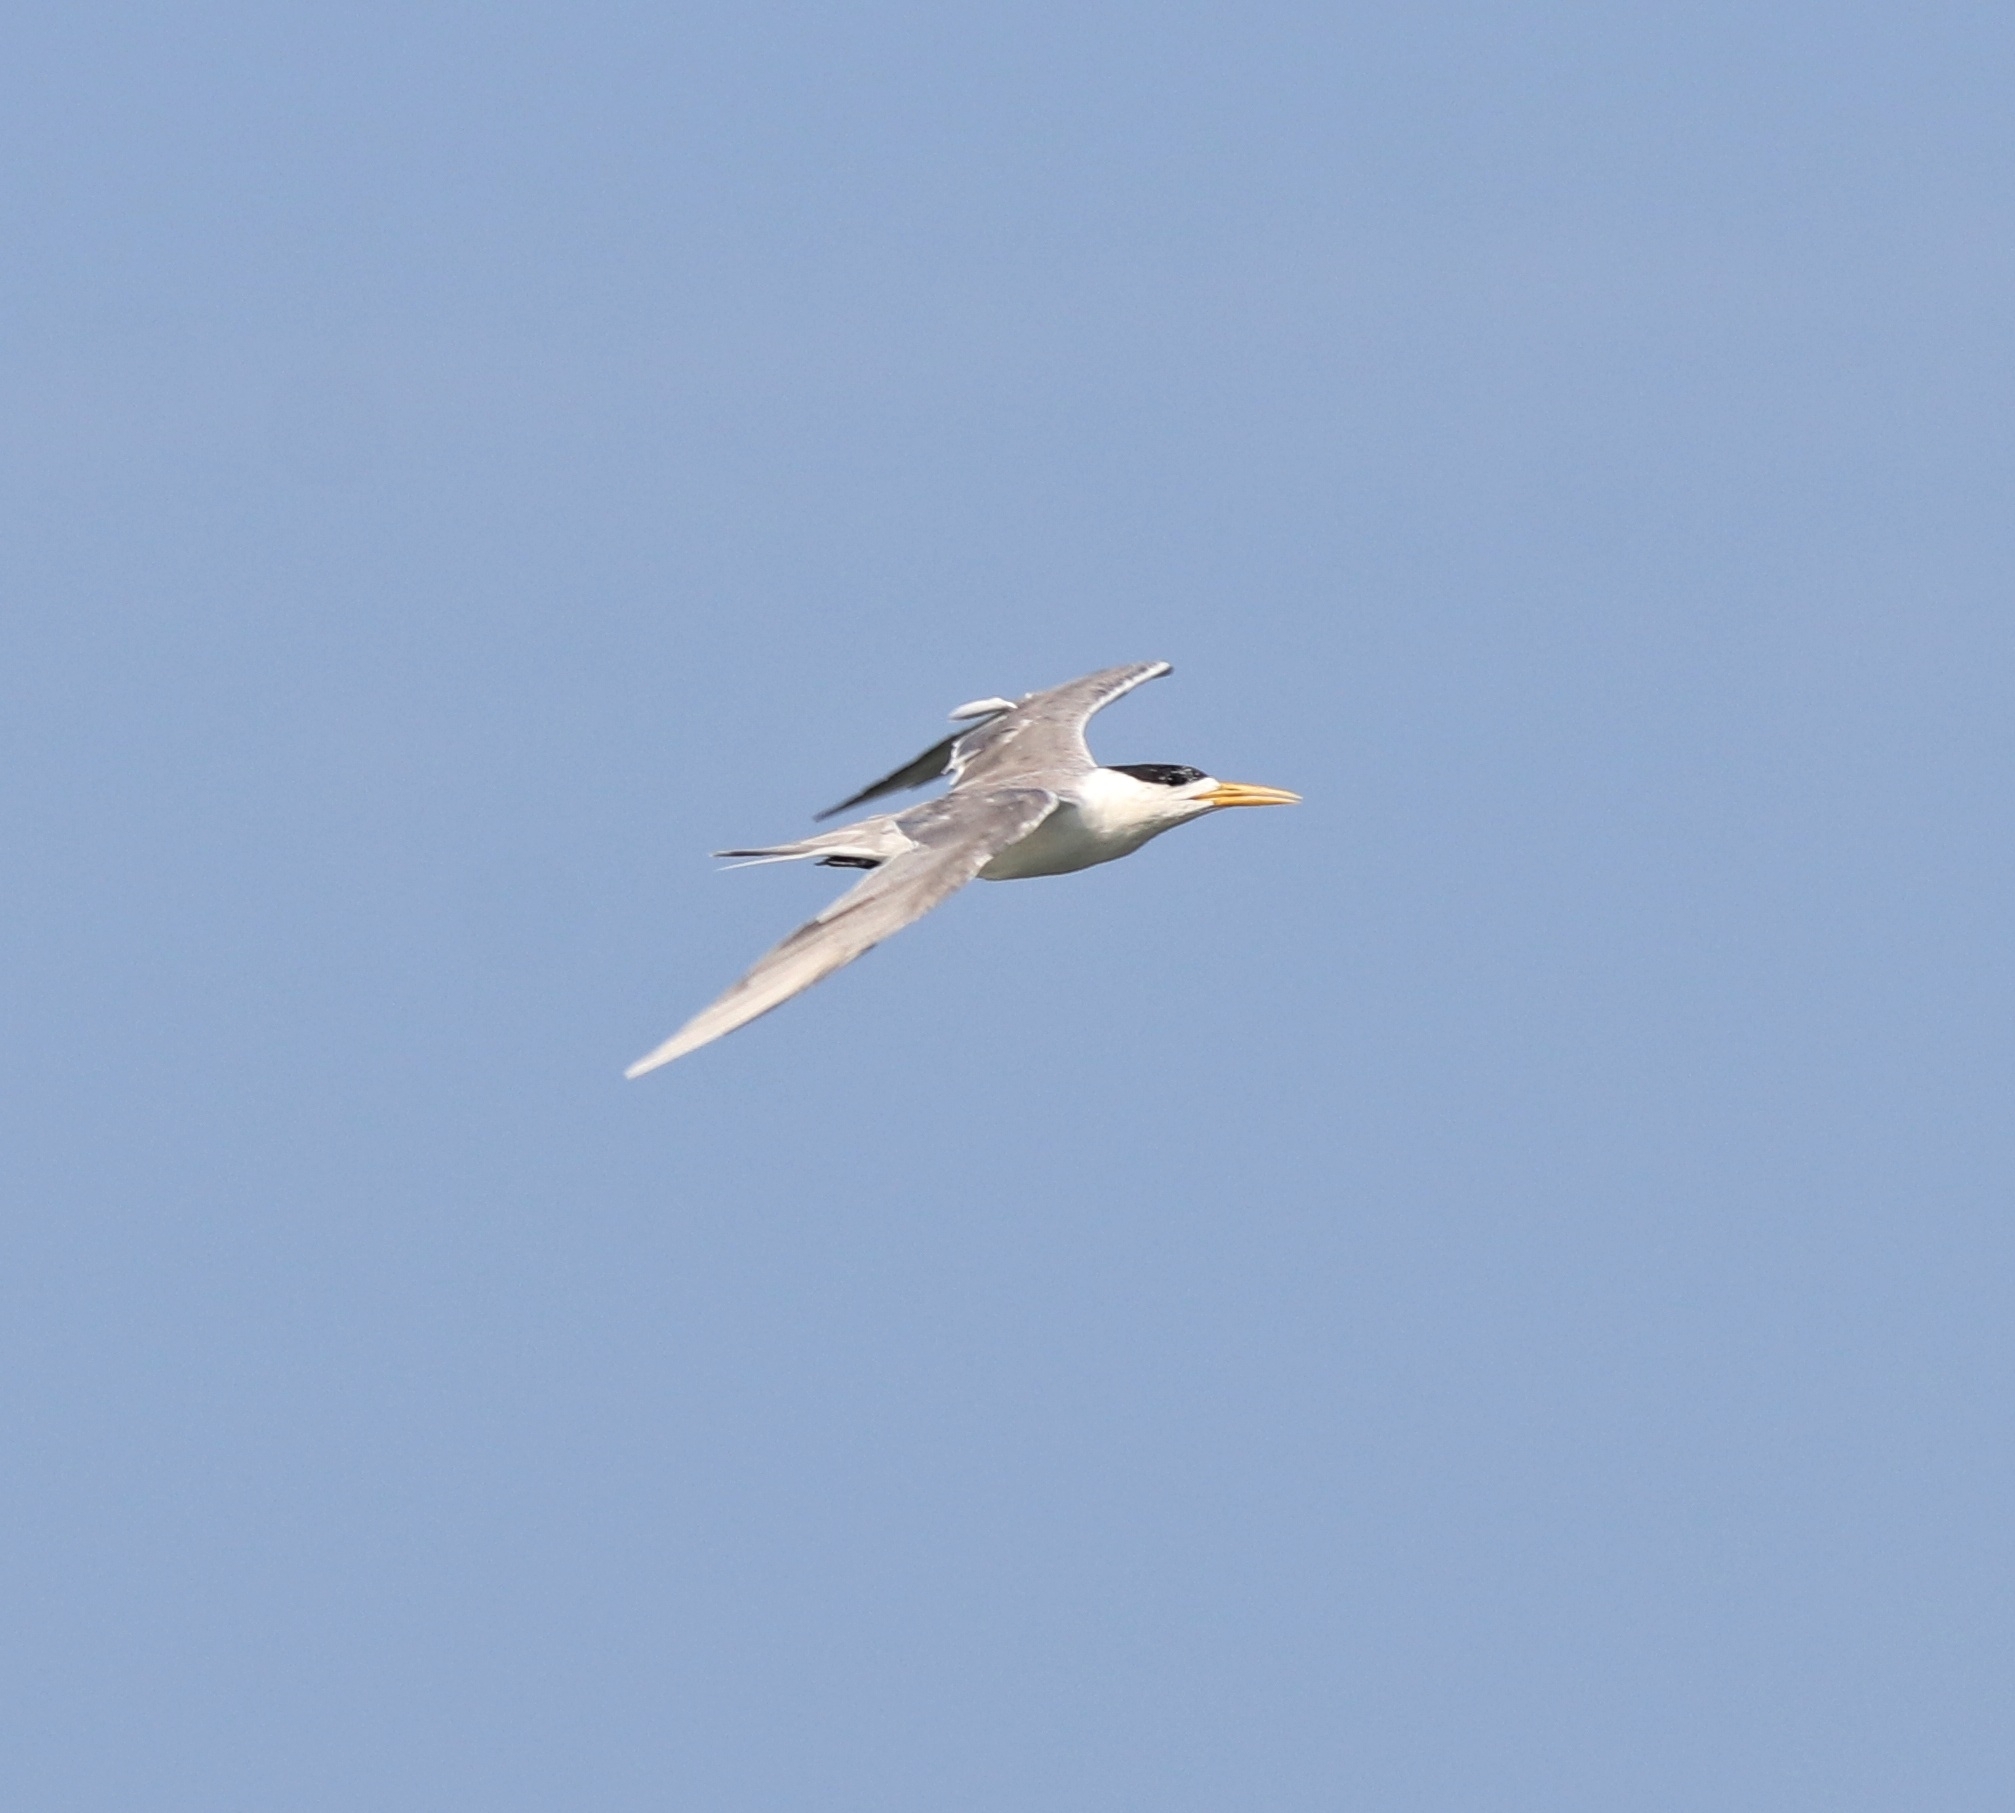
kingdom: Animalia
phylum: Chordata
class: Aves
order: Charadriiformes
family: Laridae
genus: Thalasseus
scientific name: Thalasseus bergii
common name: Greater crested tern
